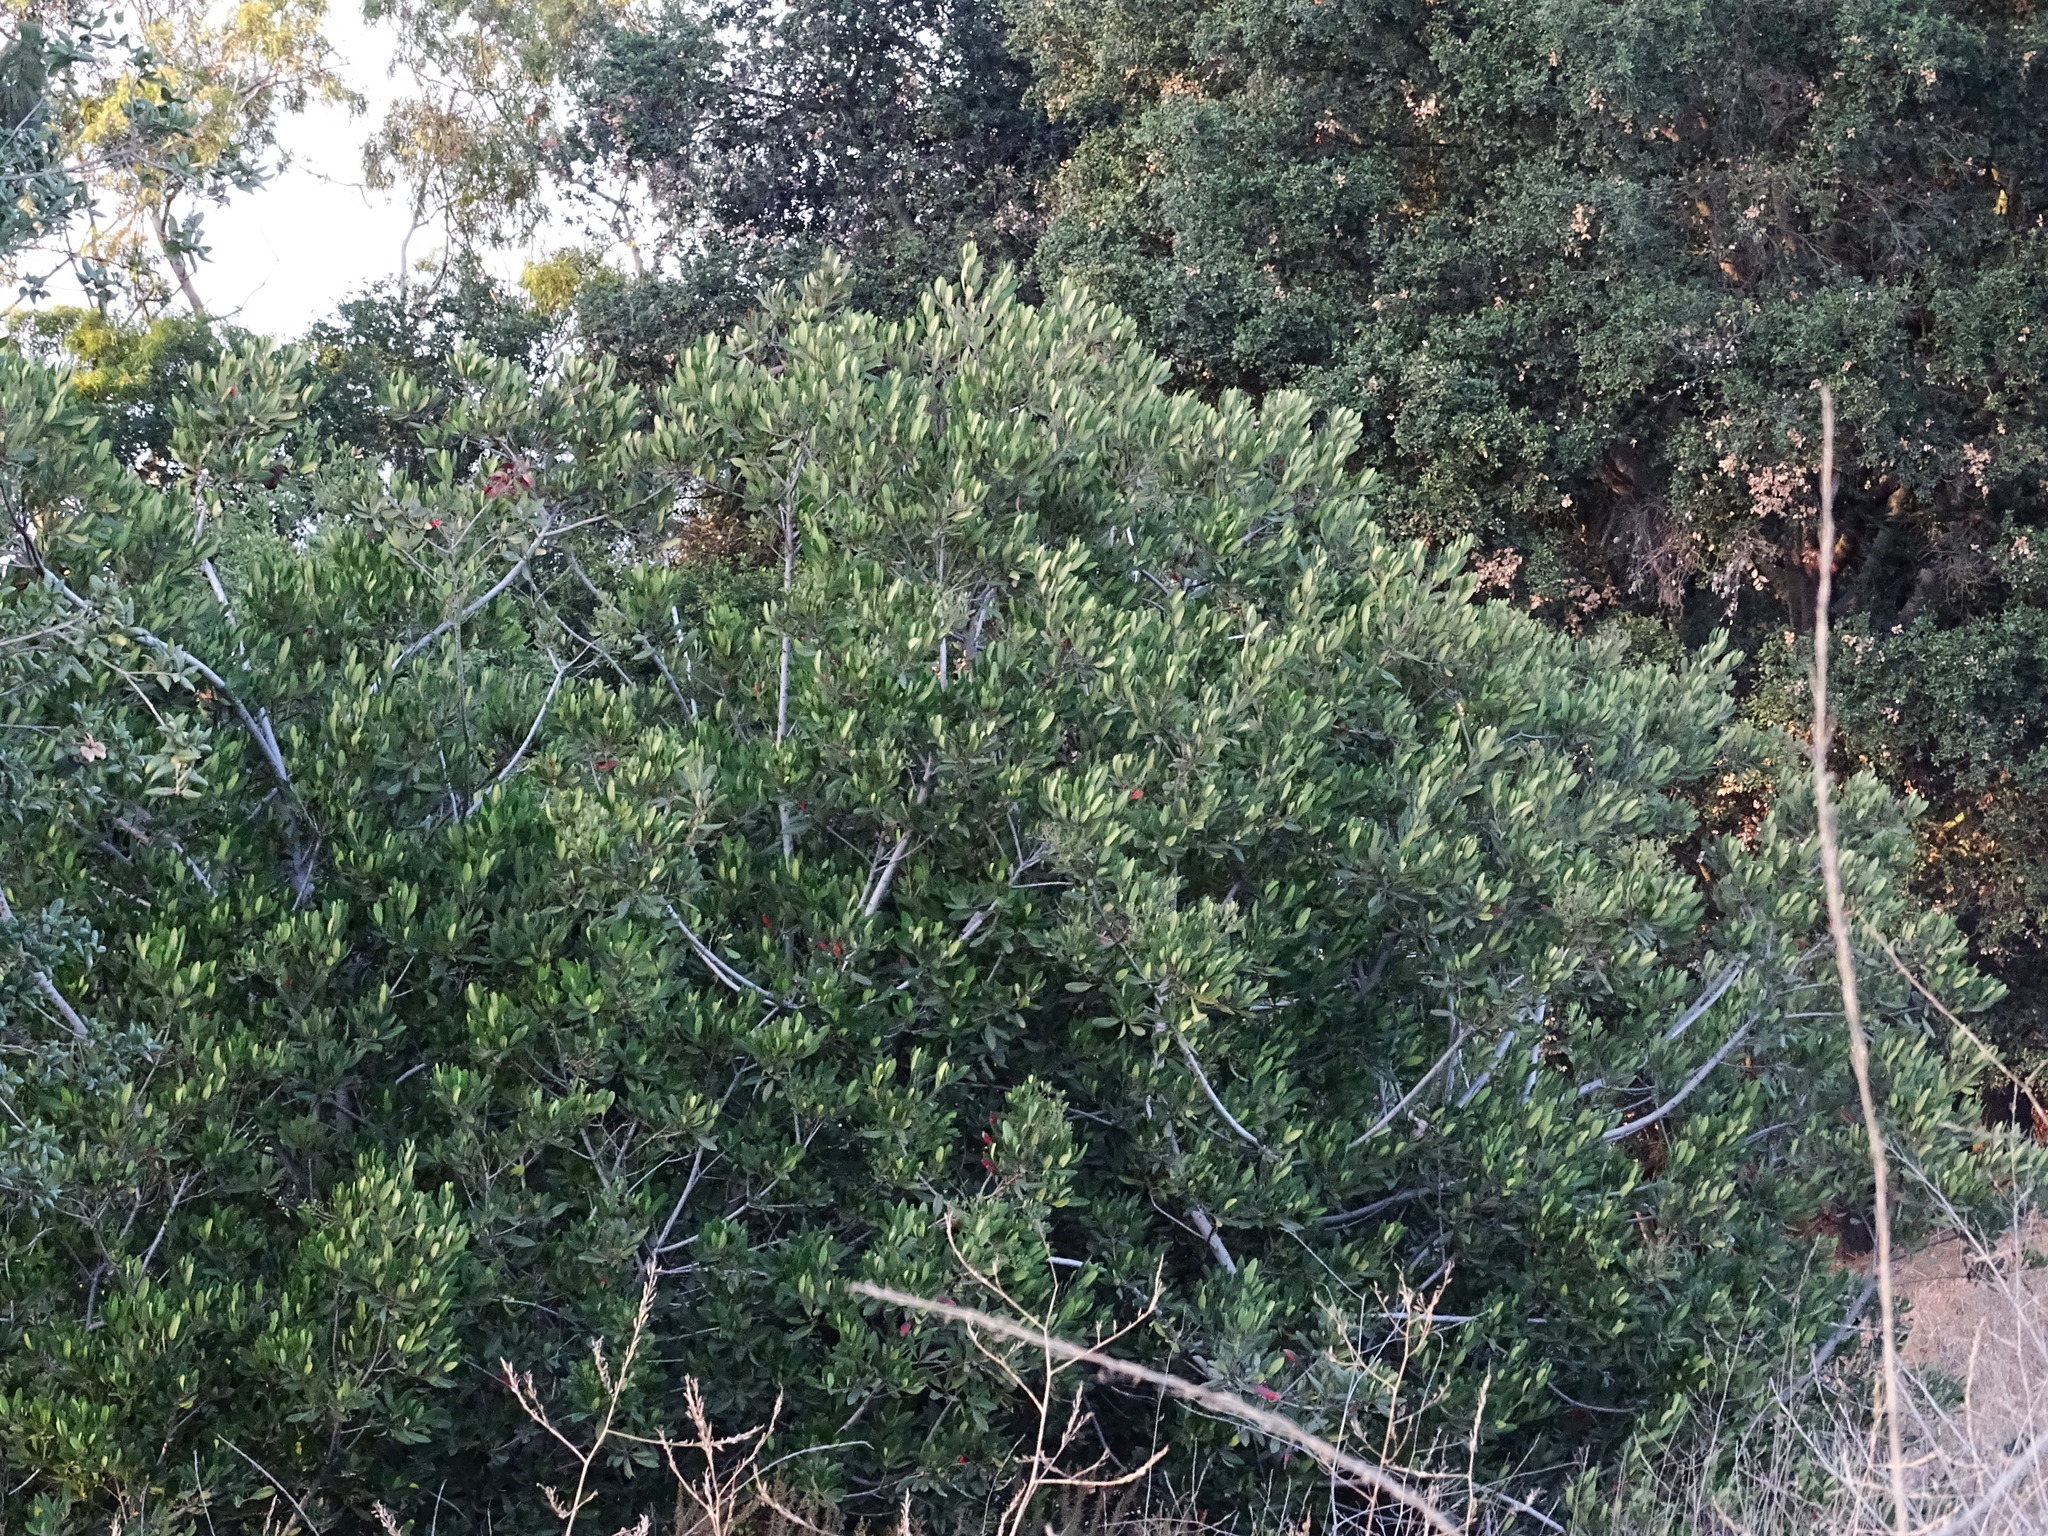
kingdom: Plantae
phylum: Tracheophyta
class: Magnoliopsida
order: Rosales
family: Rosaceae
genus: Heteromeles
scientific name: Heteromeles arbutifolia
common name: California-holly
